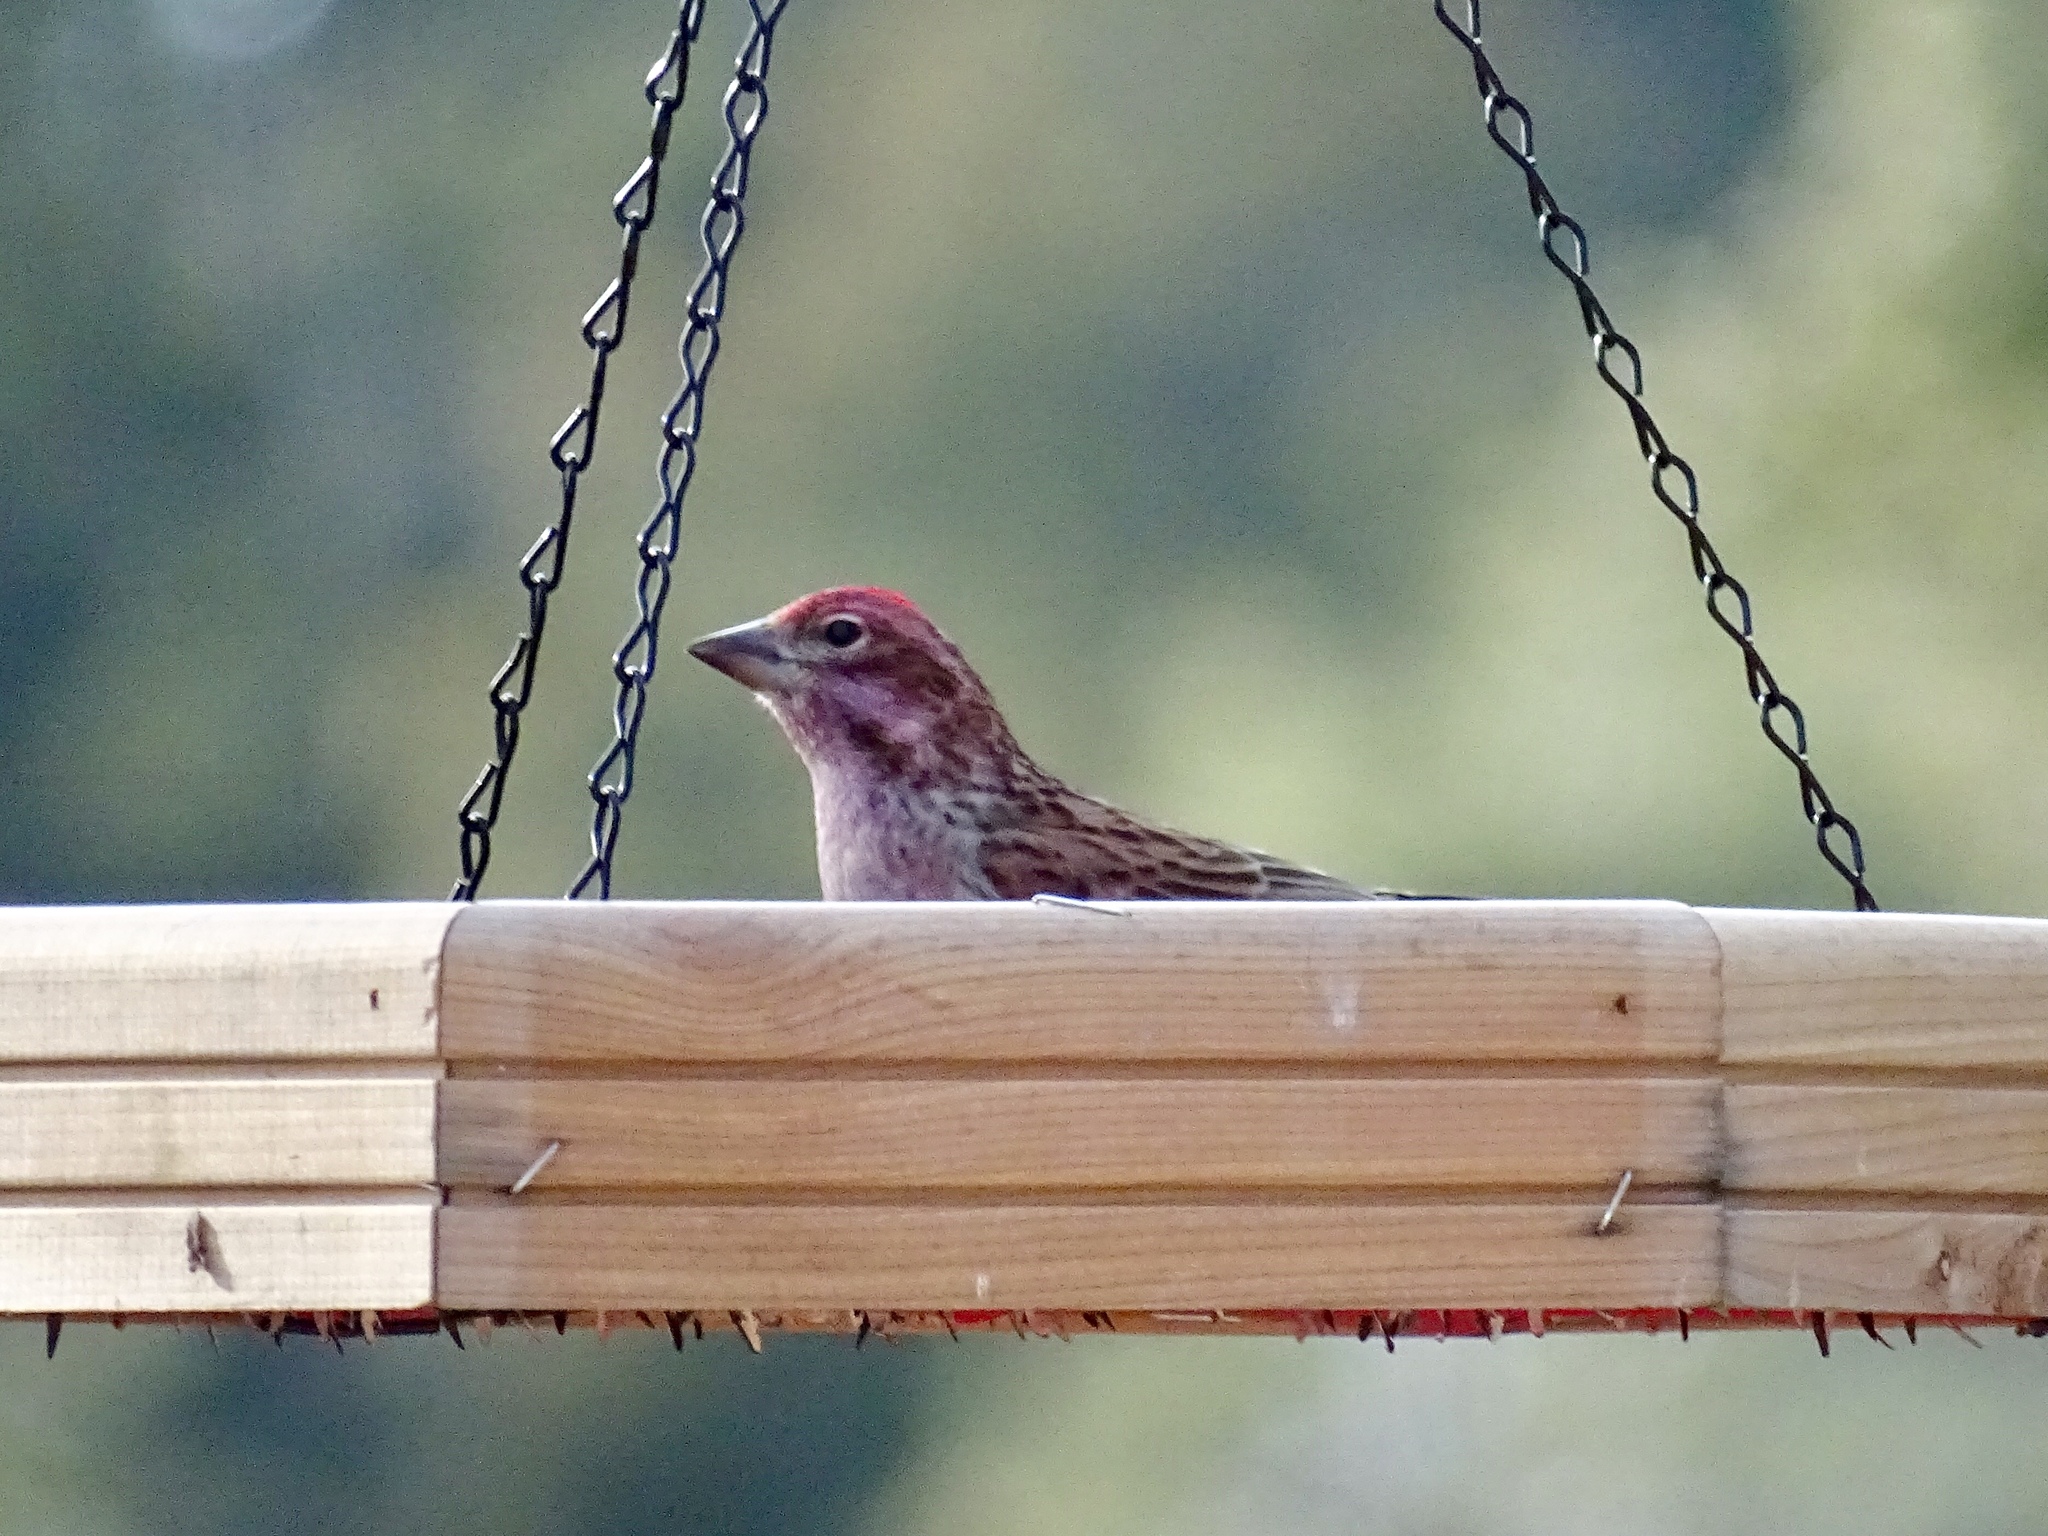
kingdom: Animalia
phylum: Chordata
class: Aves
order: Passeriformes
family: Fringillidae
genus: Haemorhous
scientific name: Haemorhous cassinii
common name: Cassin's finch
